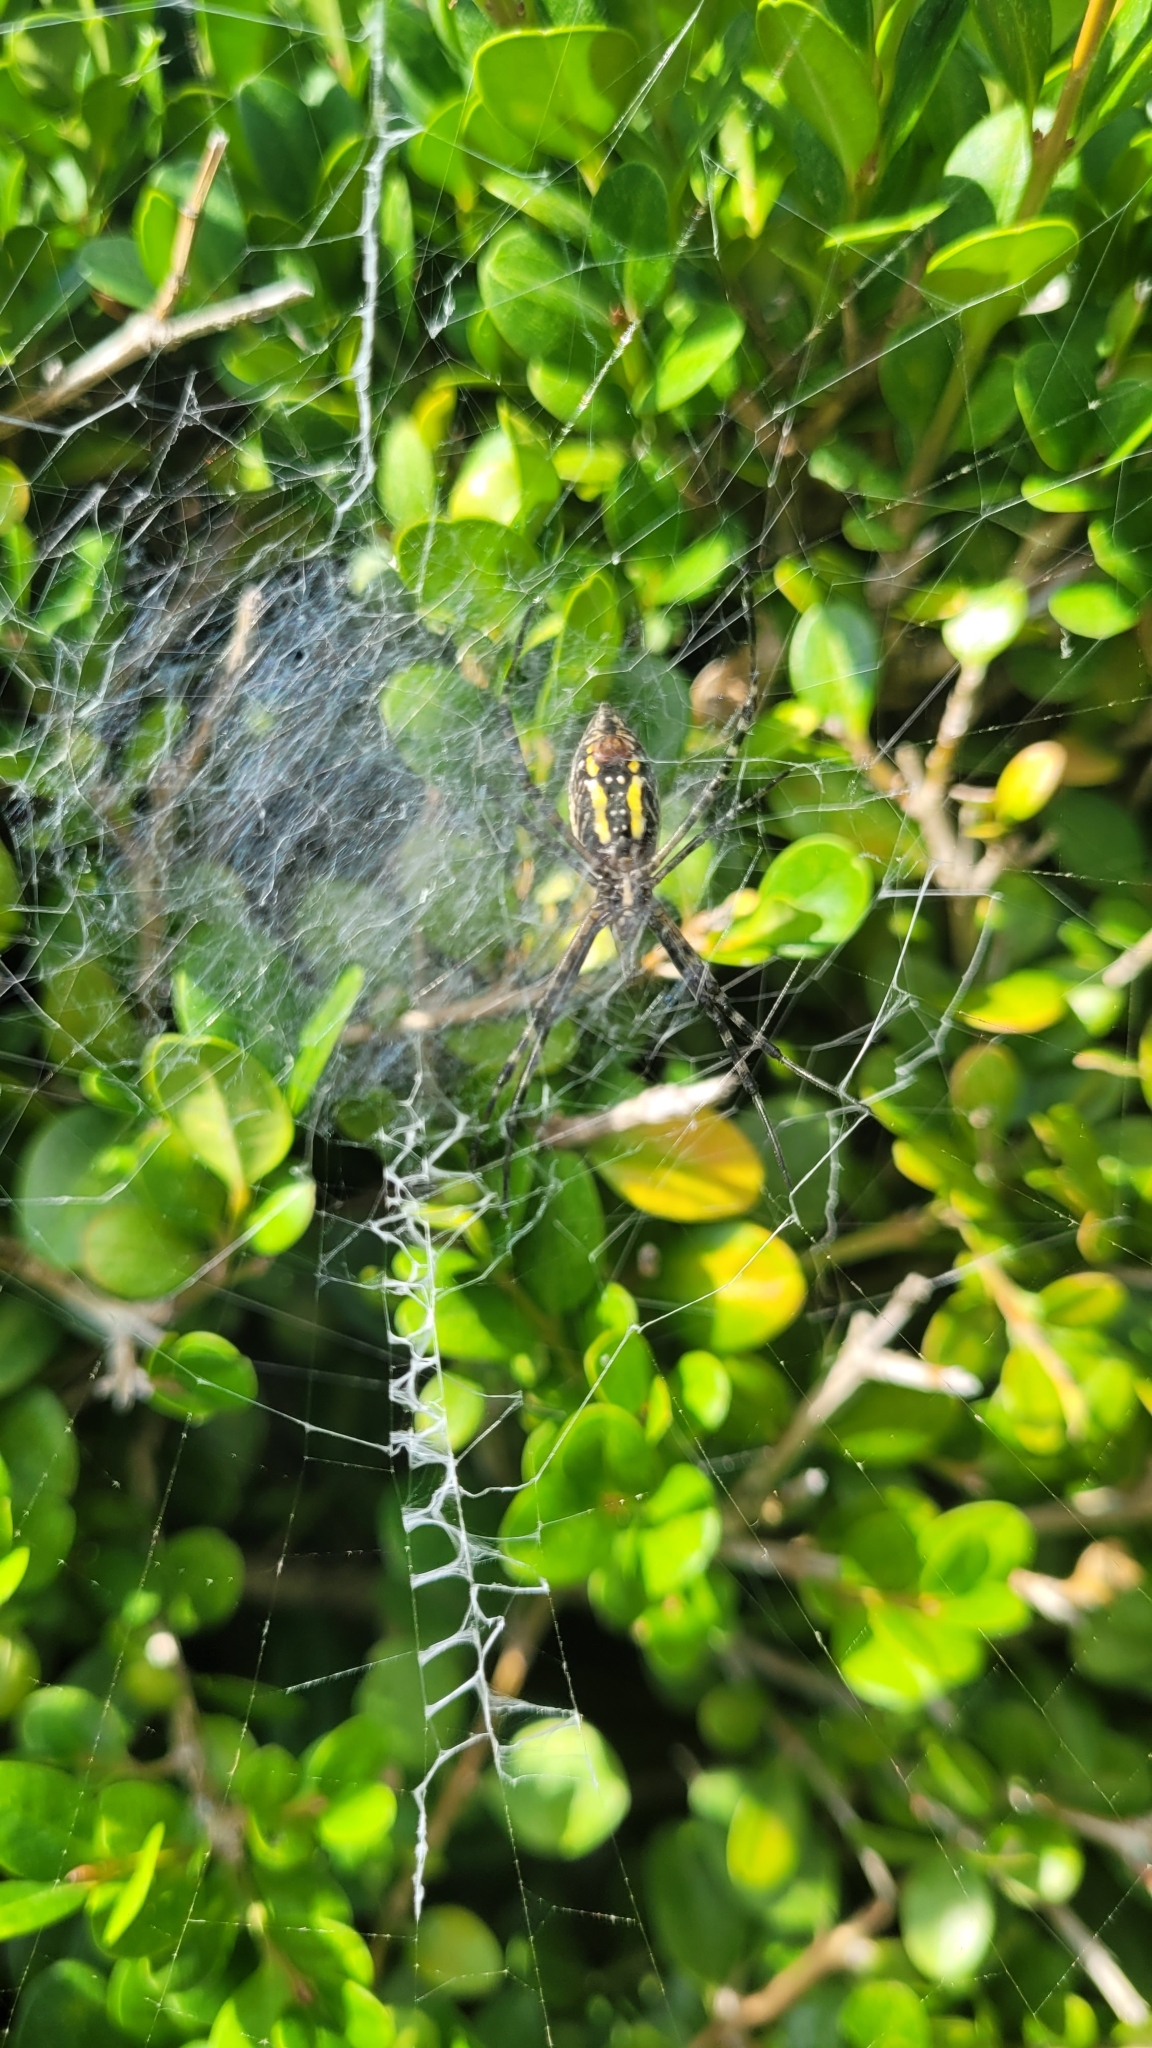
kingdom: Animalia
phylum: Arthropoda
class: Arachnida
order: Araneae
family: Araneidae
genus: Argiope
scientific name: Argiope trifasciata
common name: Banded garden spider
